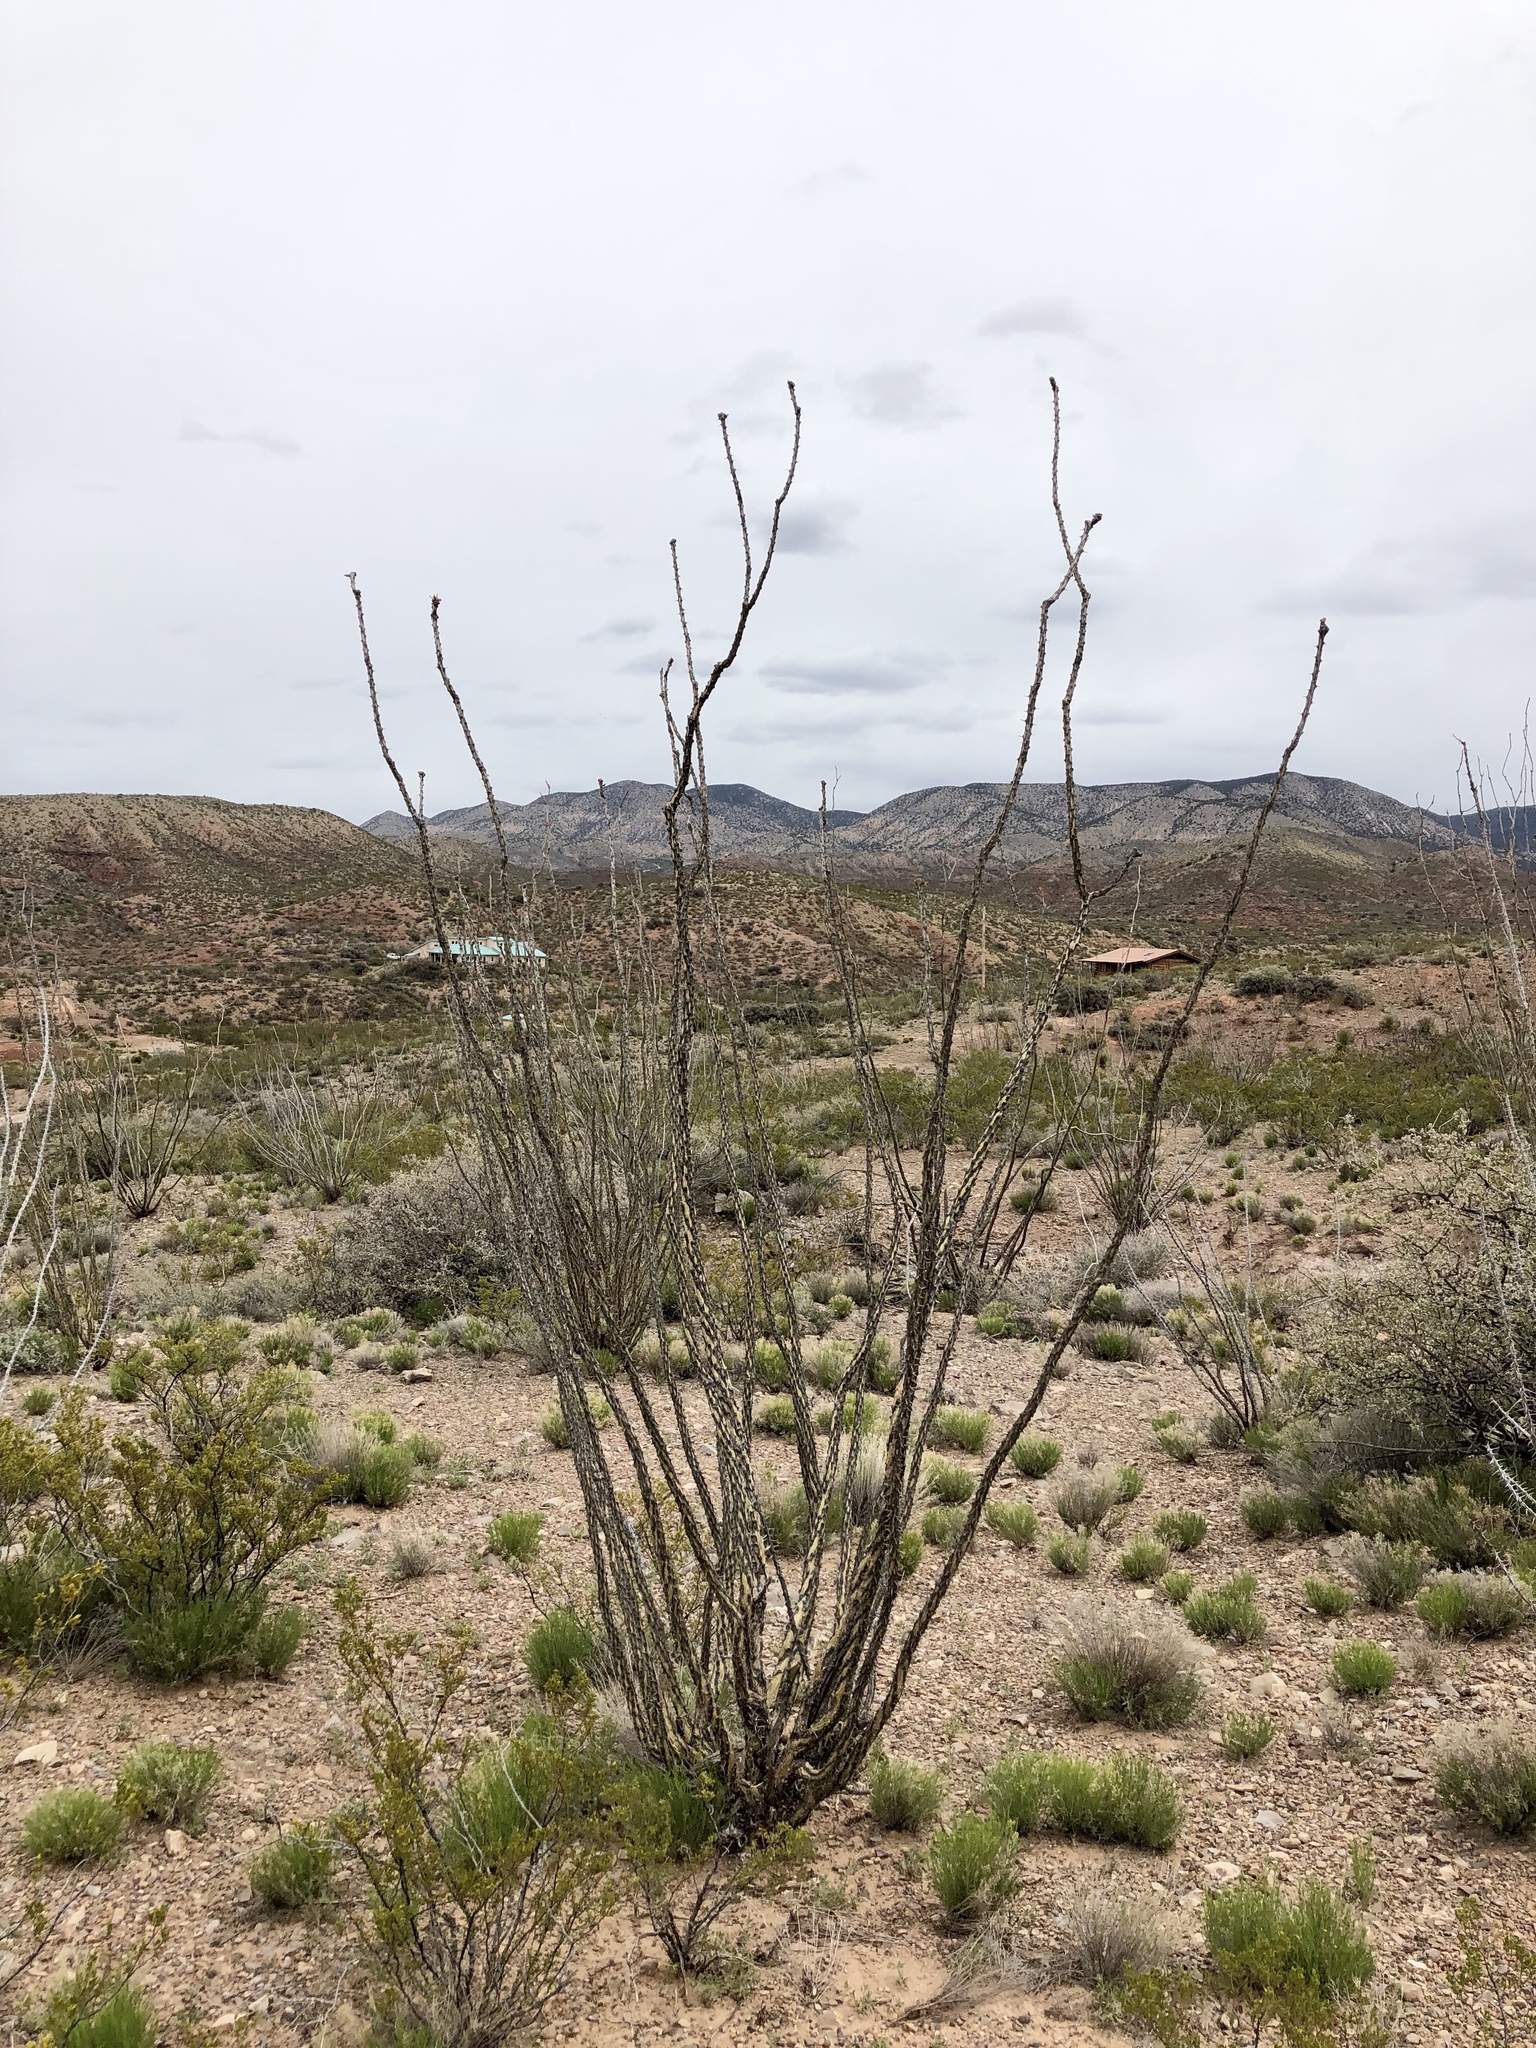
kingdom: Plantae
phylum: Tracheophyta
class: Magnoliopsida
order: Ericales
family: Fouquieriaceae
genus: Fouquieria
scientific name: Fouquieria splendens
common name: Vine-cactus
